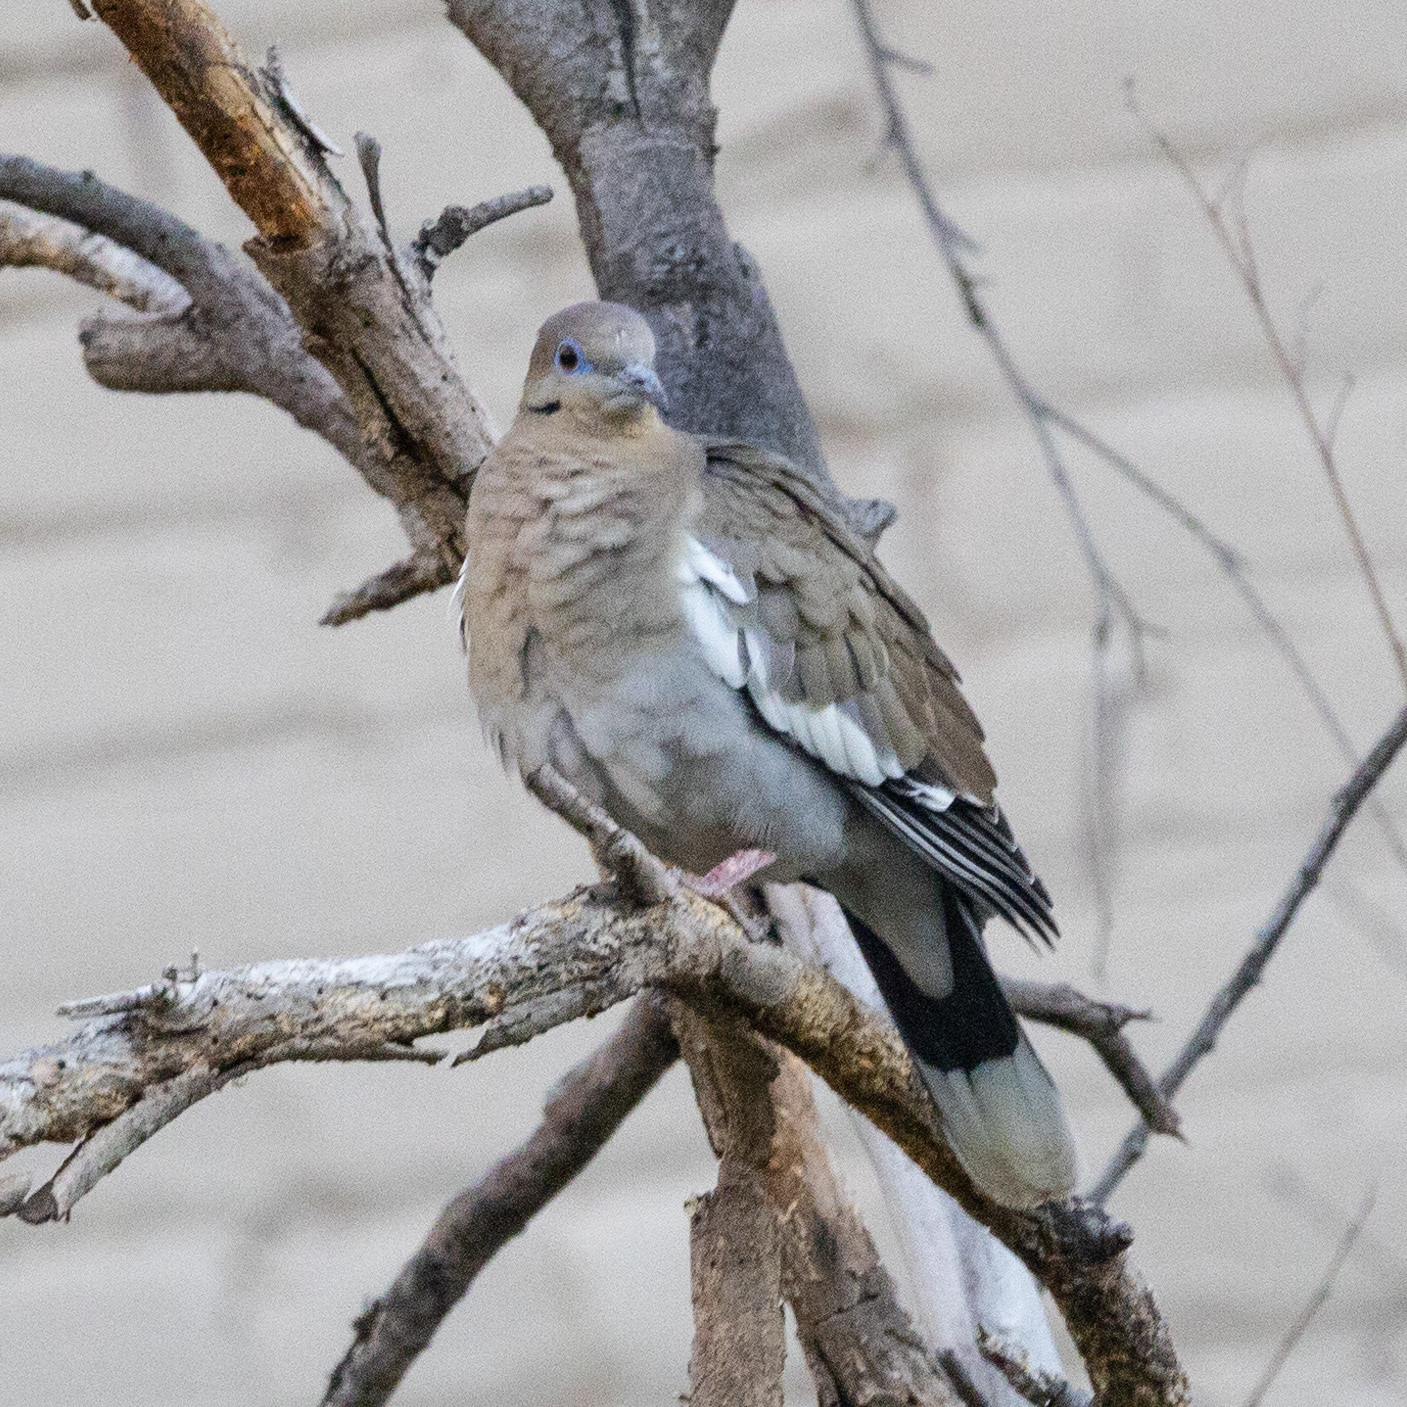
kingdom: Animalia
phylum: Chordata
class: Aves
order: Columbiformes
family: Columbidae
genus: Zenaida
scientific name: Zenaida asiatica
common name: White-winged dove
